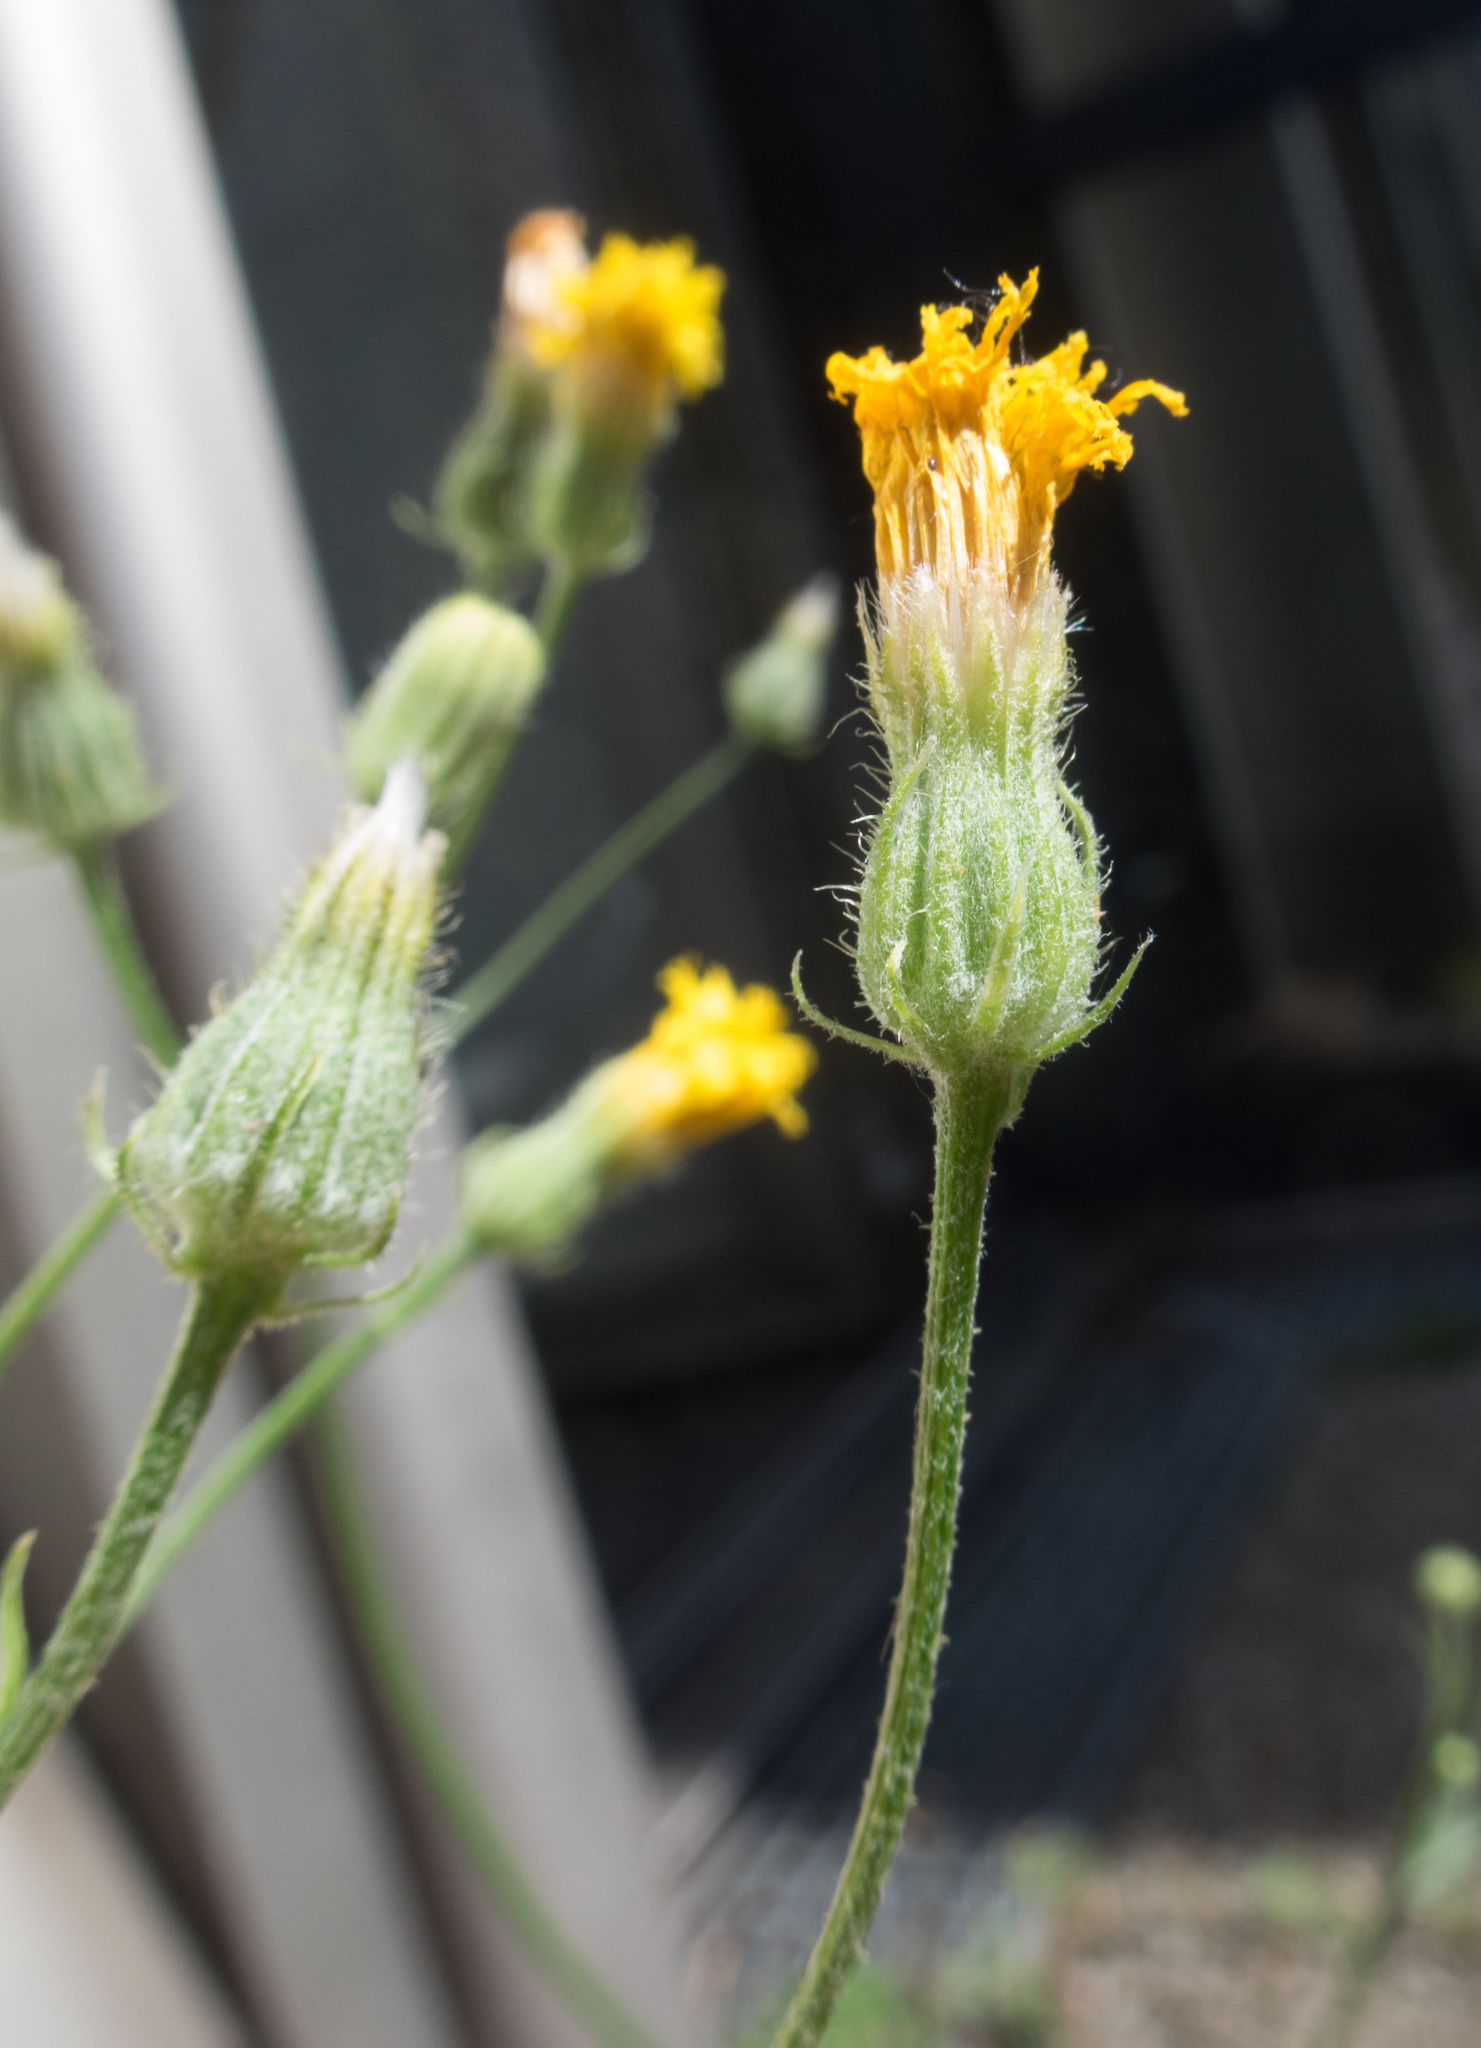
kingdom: Plantae
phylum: Tracheophyta
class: Magnoliopsida
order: Asterales
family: Asteraceae
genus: Crepis
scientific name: Crepis tectorum
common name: Narrow-leaved hawk's-beard
